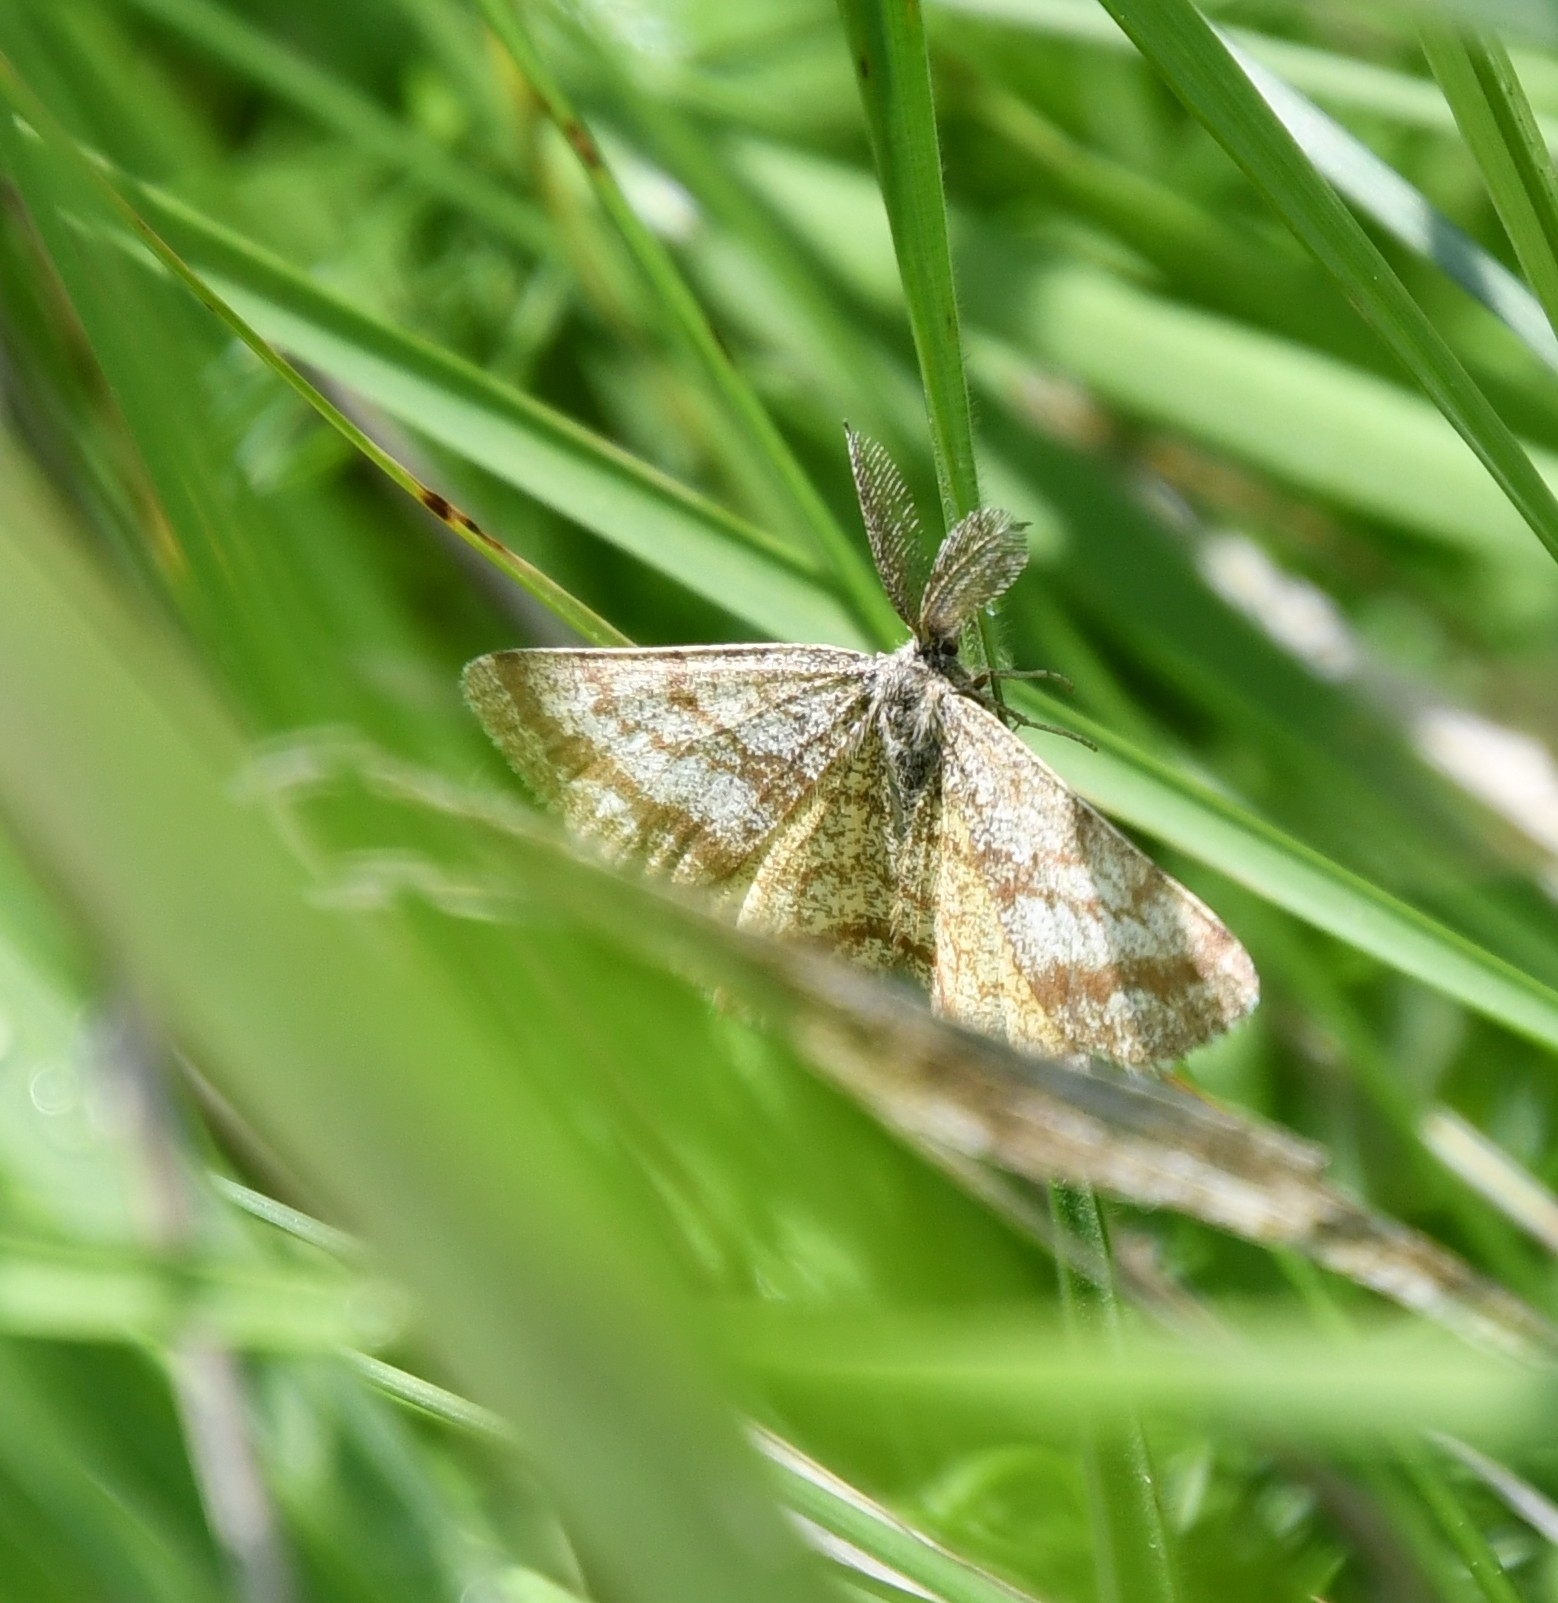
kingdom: Animalia
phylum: Arthropoda
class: Insecta
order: Lepidoptera
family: Geometridae
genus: Ematurga
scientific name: Ematurga atomaria
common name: Common heath
